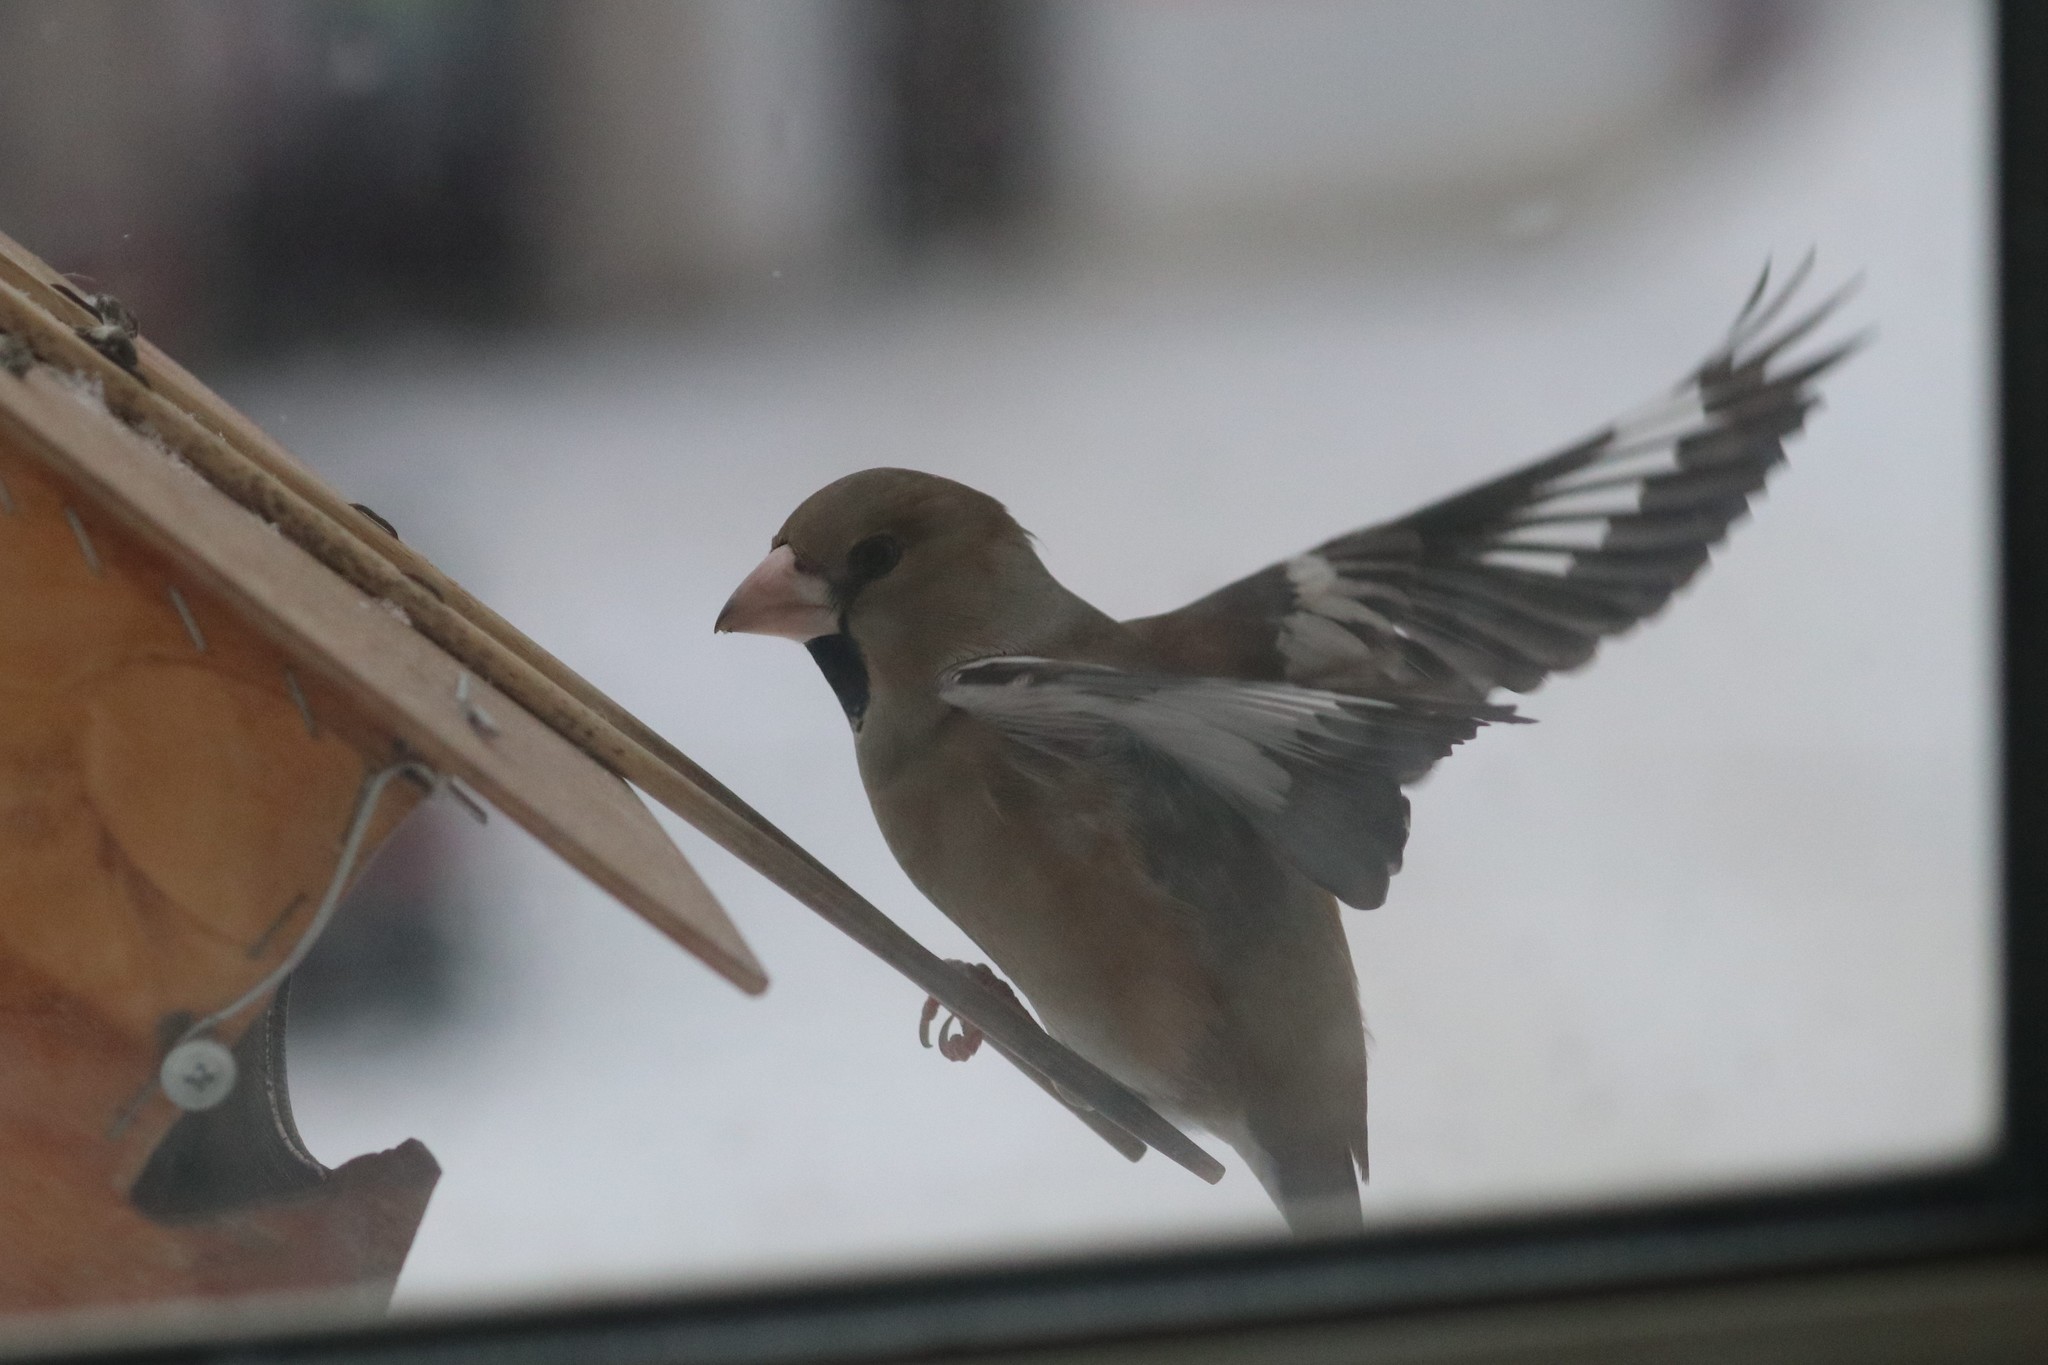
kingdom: Animalia
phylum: Chordata
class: Aves
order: Passeriformes
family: Fringillidae
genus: Coccothraustes
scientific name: Coccothraustes coccothraustes
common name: Hawfinch
